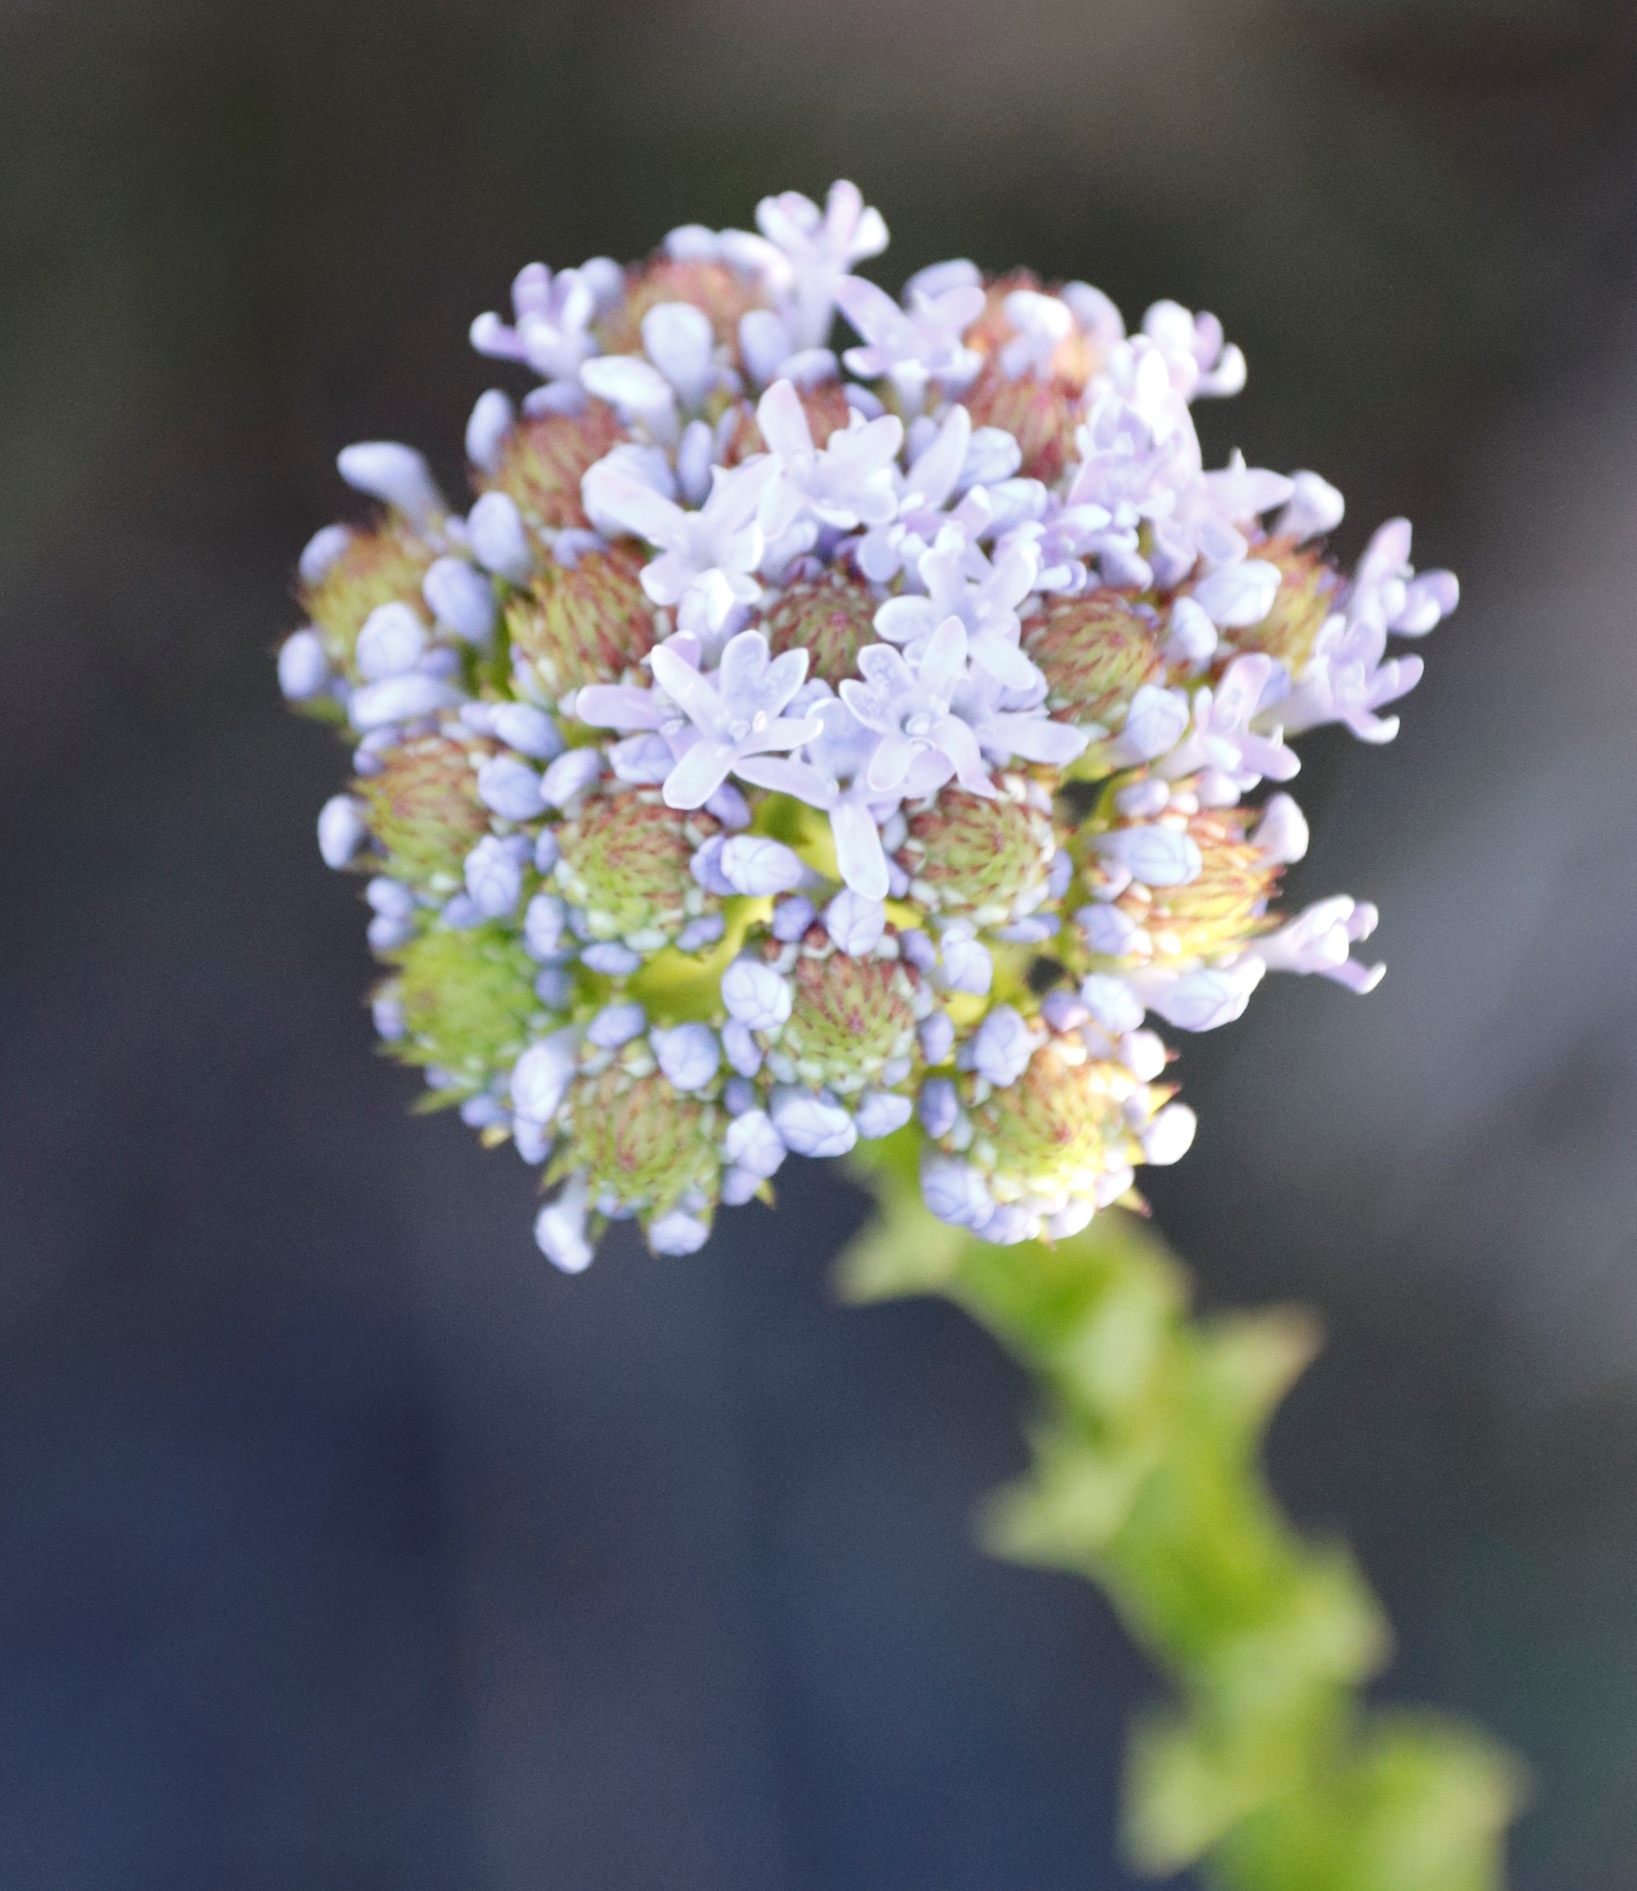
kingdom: Plantae
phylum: Tracheophyta
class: Magnoliopsida
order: Lamiales
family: Scrophulariaceae
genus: Pseudoselago
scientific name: Pseudoselago serrata
